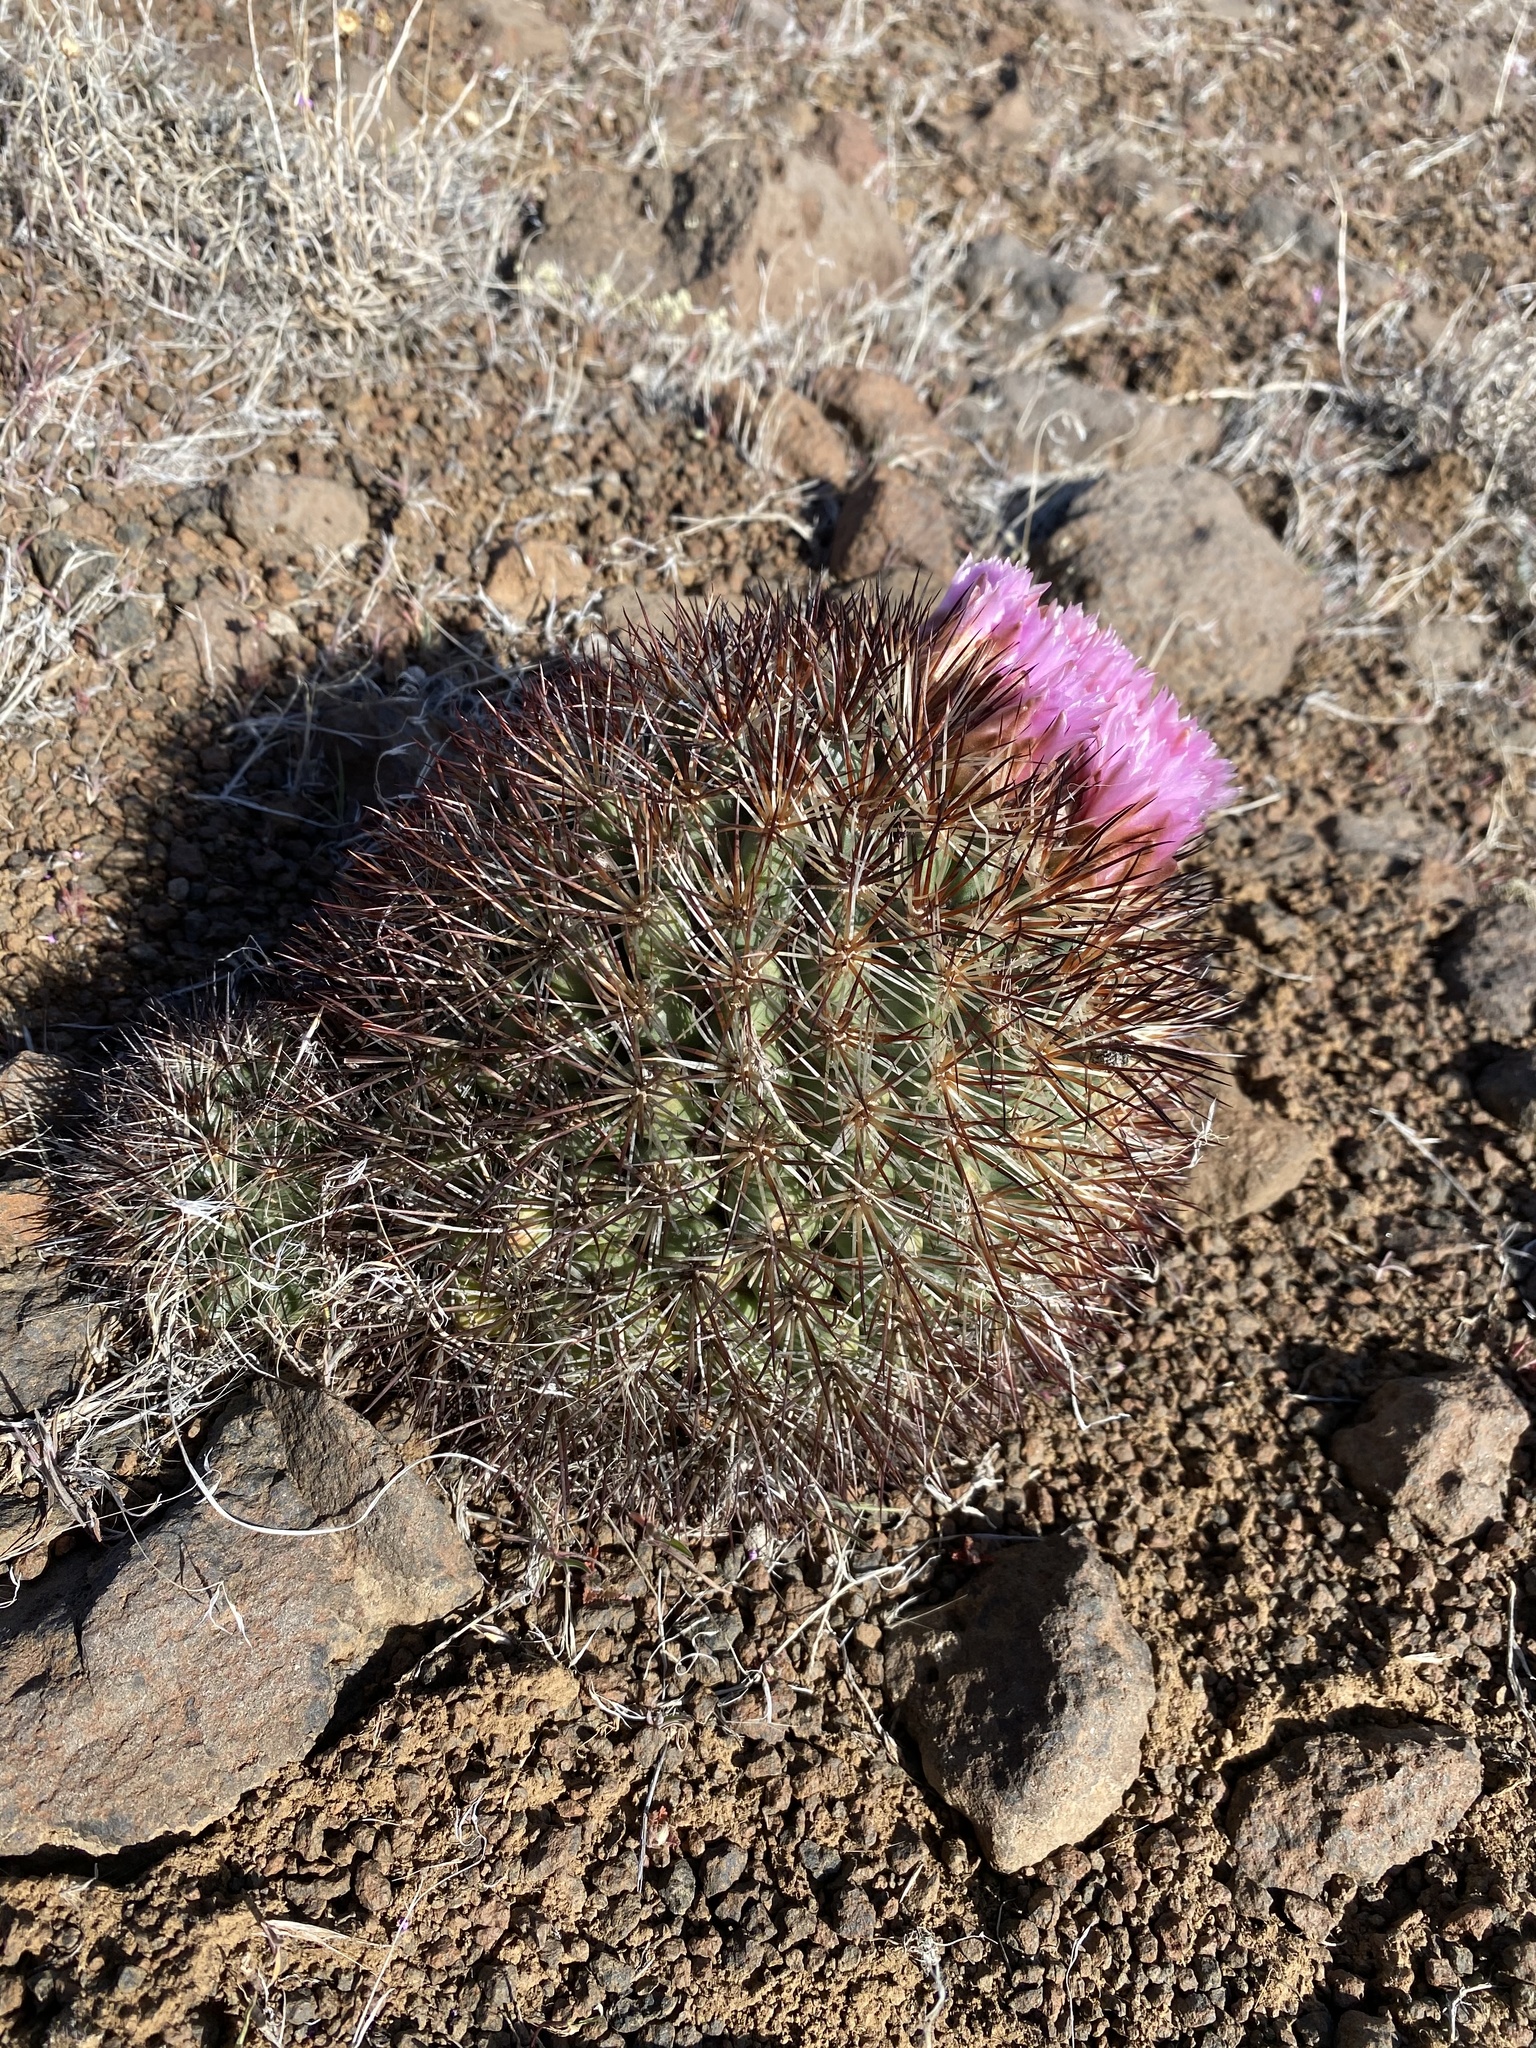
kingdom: Plantae
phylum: Tracheophyta
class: Magnoliopsida
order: Caryophyllales
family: Cactaceae
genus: Pediocactus
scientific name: Pediocactus nigrispinus
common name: Simpson's hedgehog cactus
